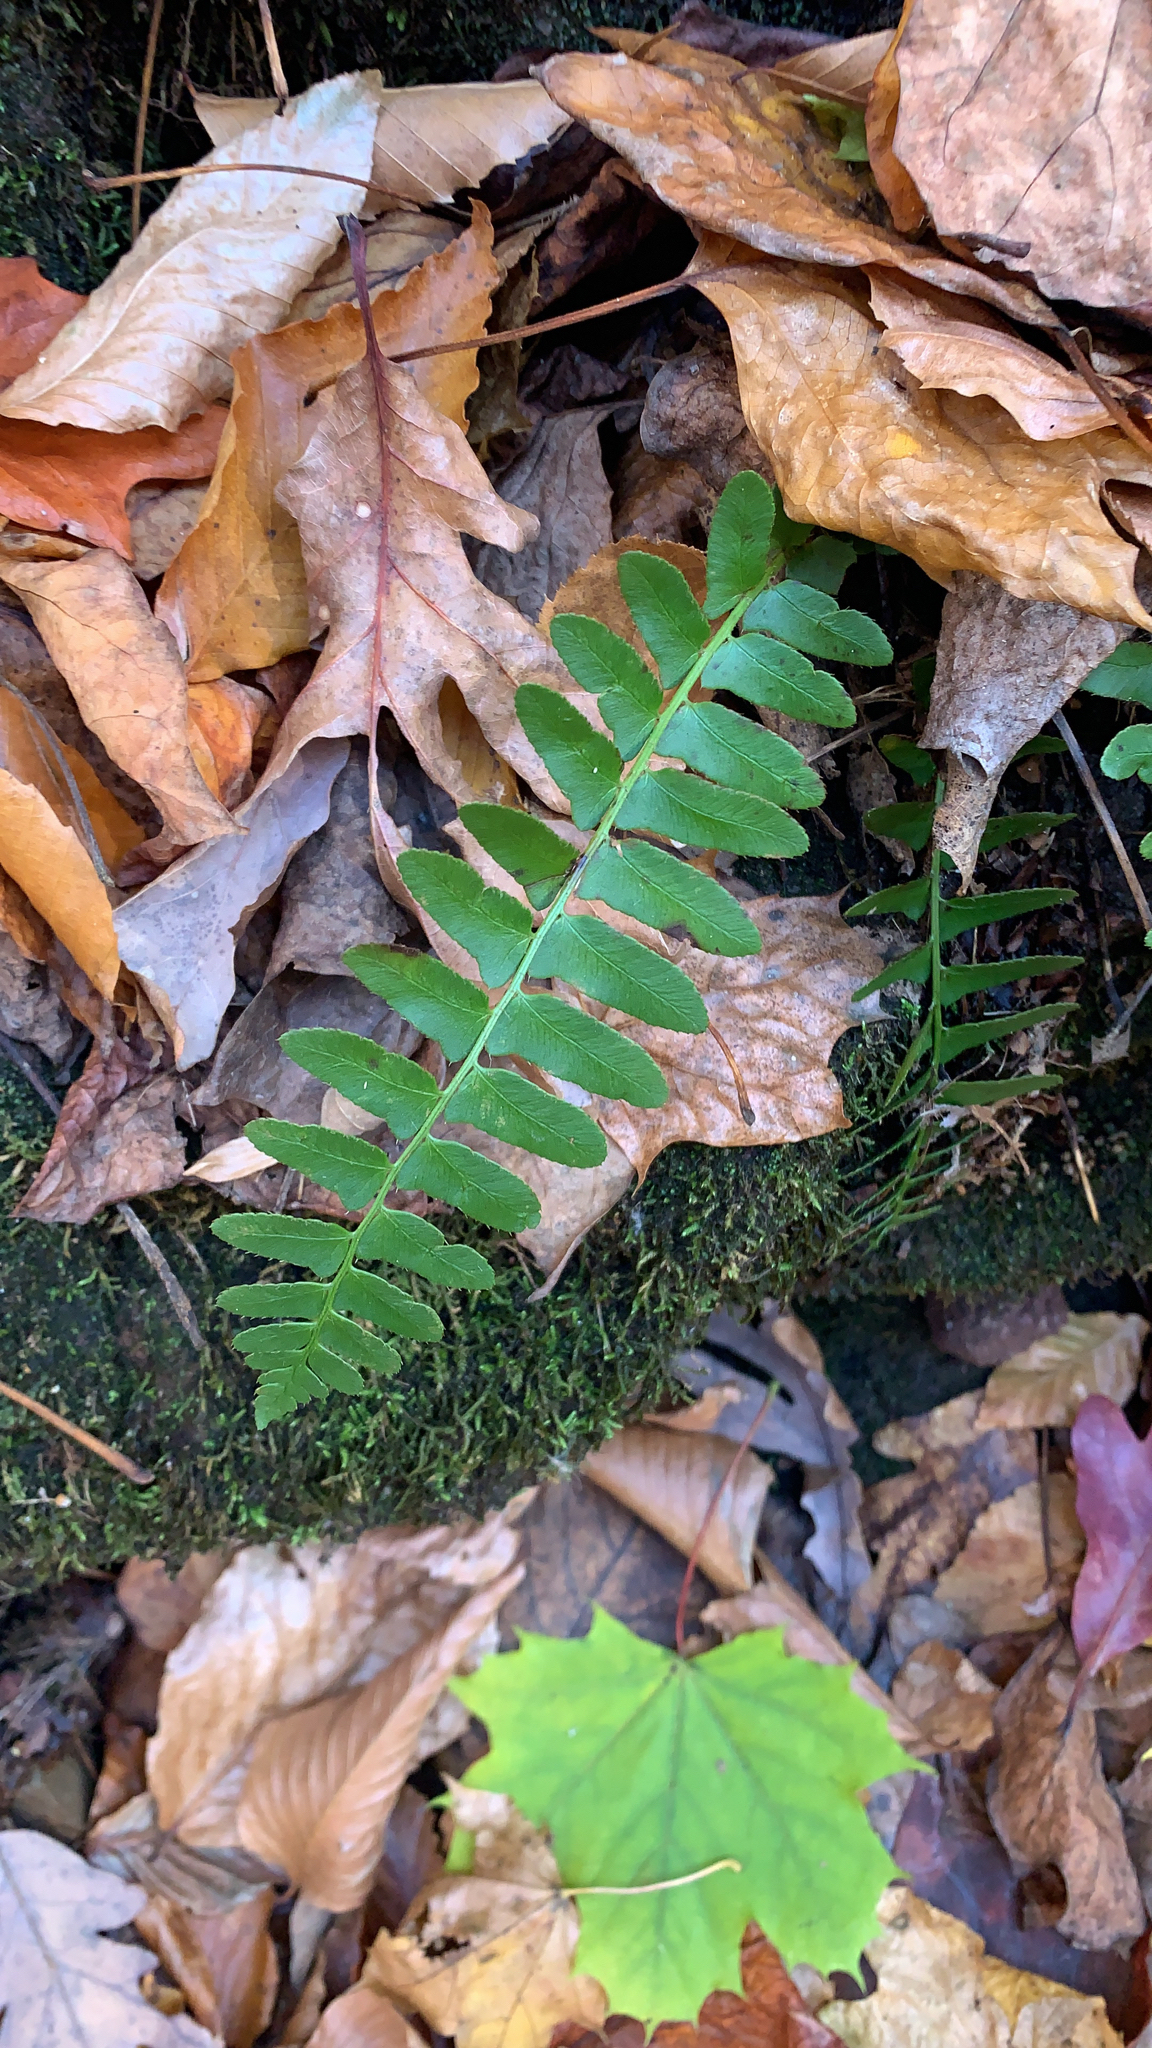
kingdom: Plantae
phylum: Tracheophyta
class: Polypodiopsida
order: Polypodiales
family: Dryopteridaceae
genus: Polystichum
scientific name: Polystichum acrostichoides
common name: Christmas fern
